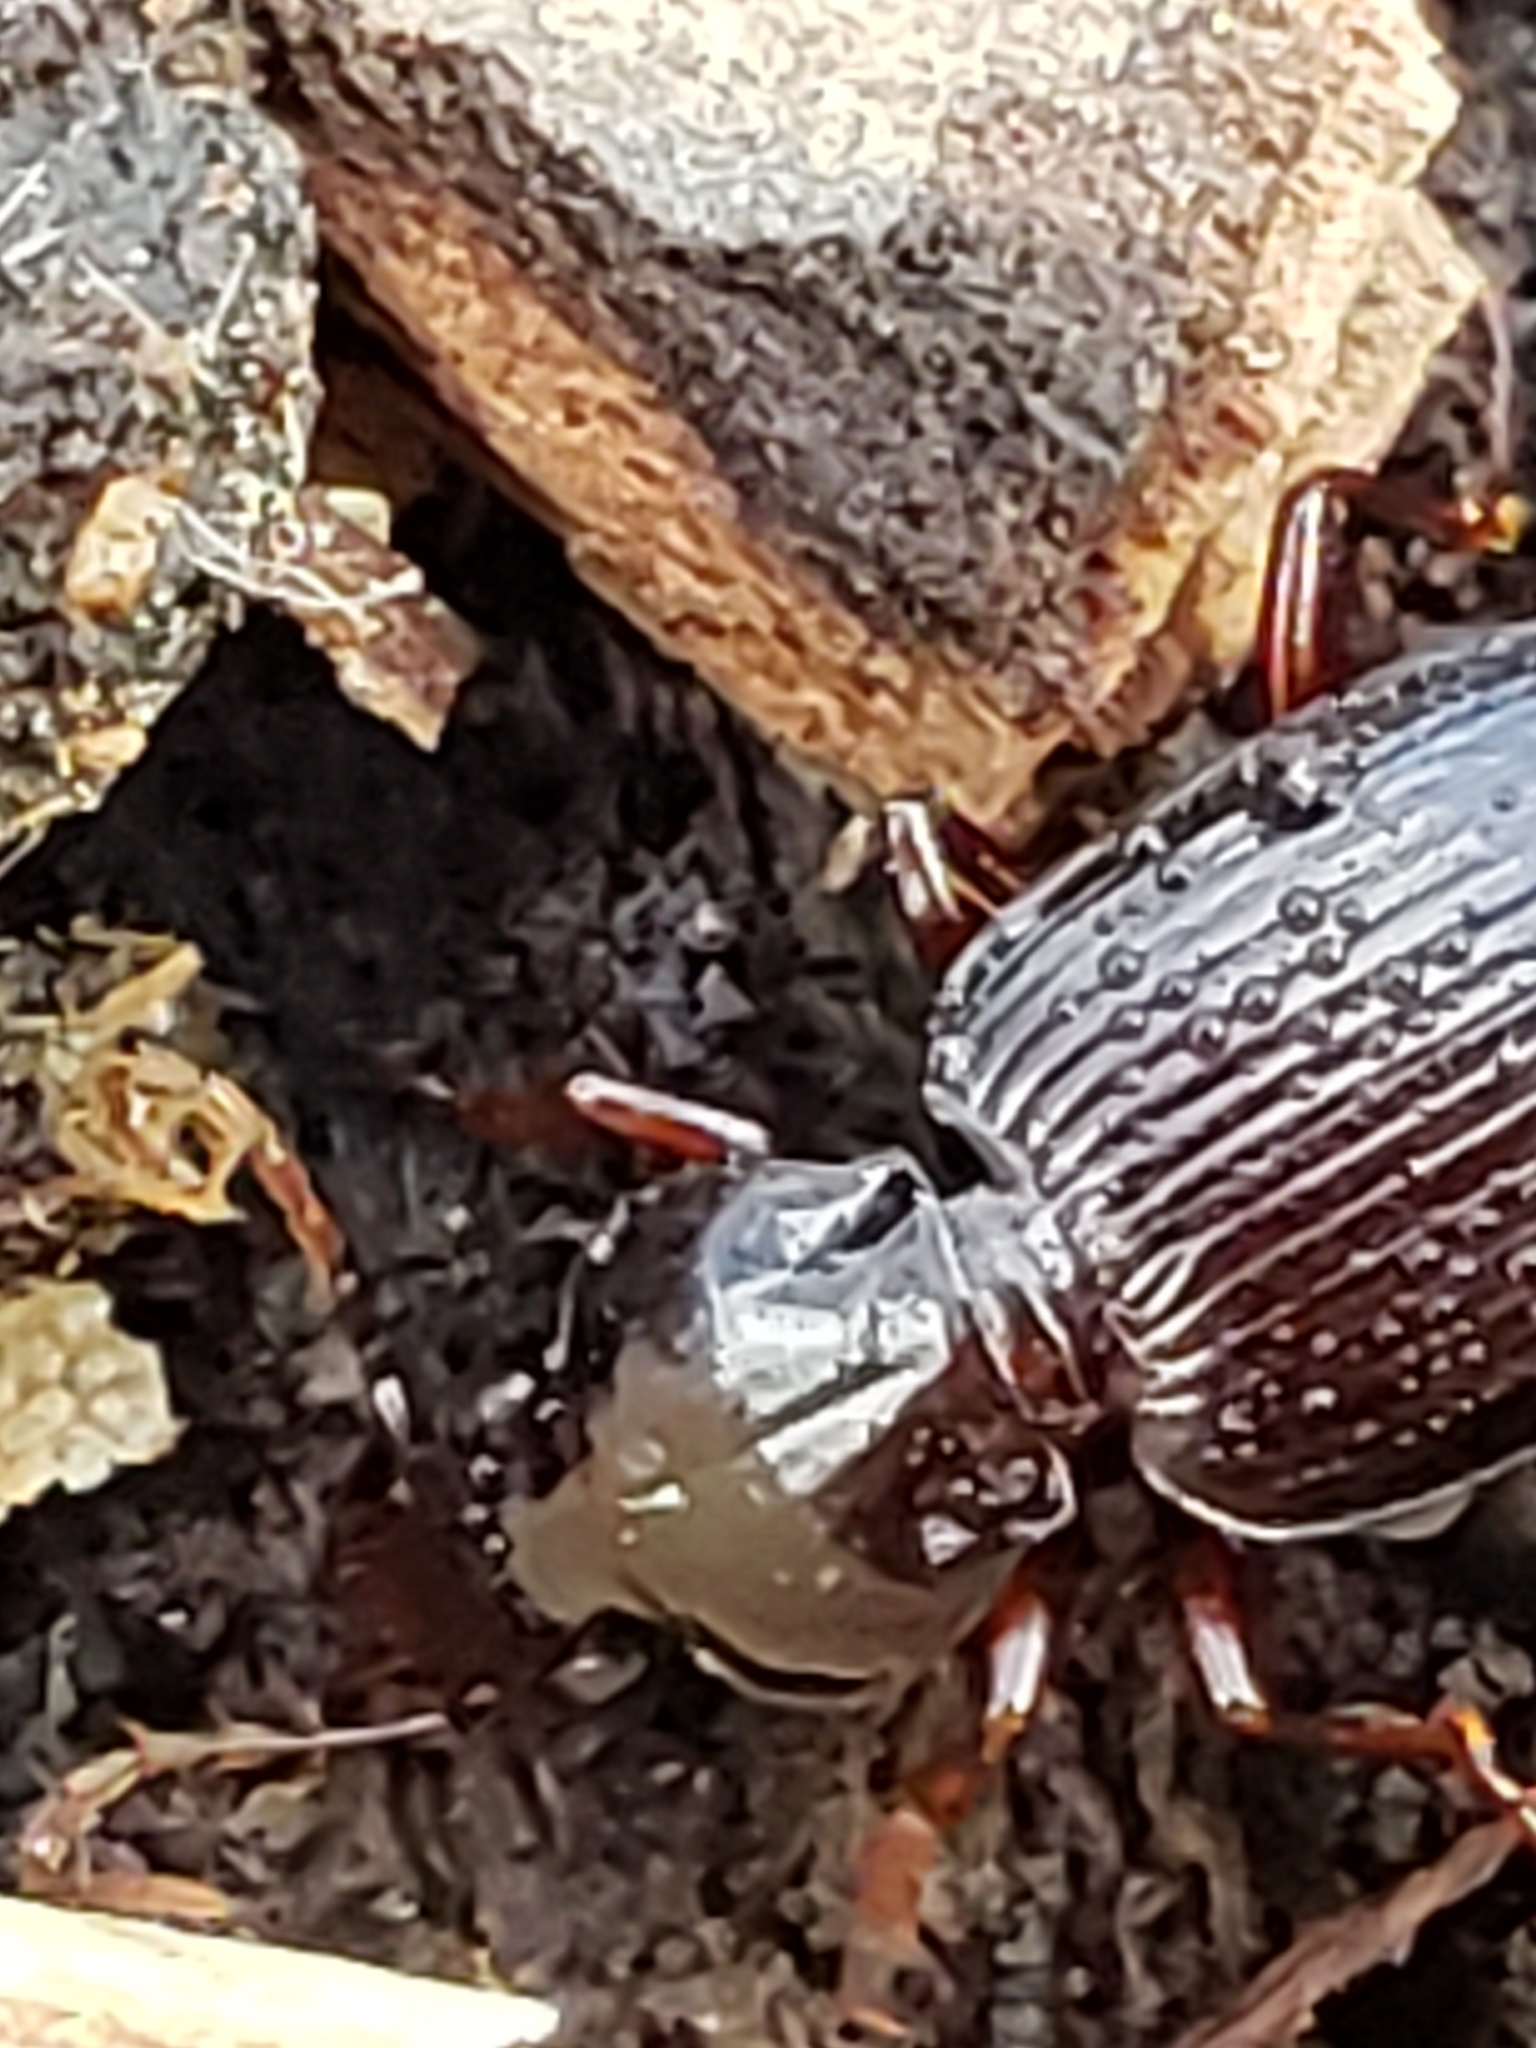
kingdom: Animalia
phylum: Arthropoda
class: Insecta
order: Coleoptera
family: Carabidae
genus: Gastrellarius
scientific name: Gastrellarius honestus
